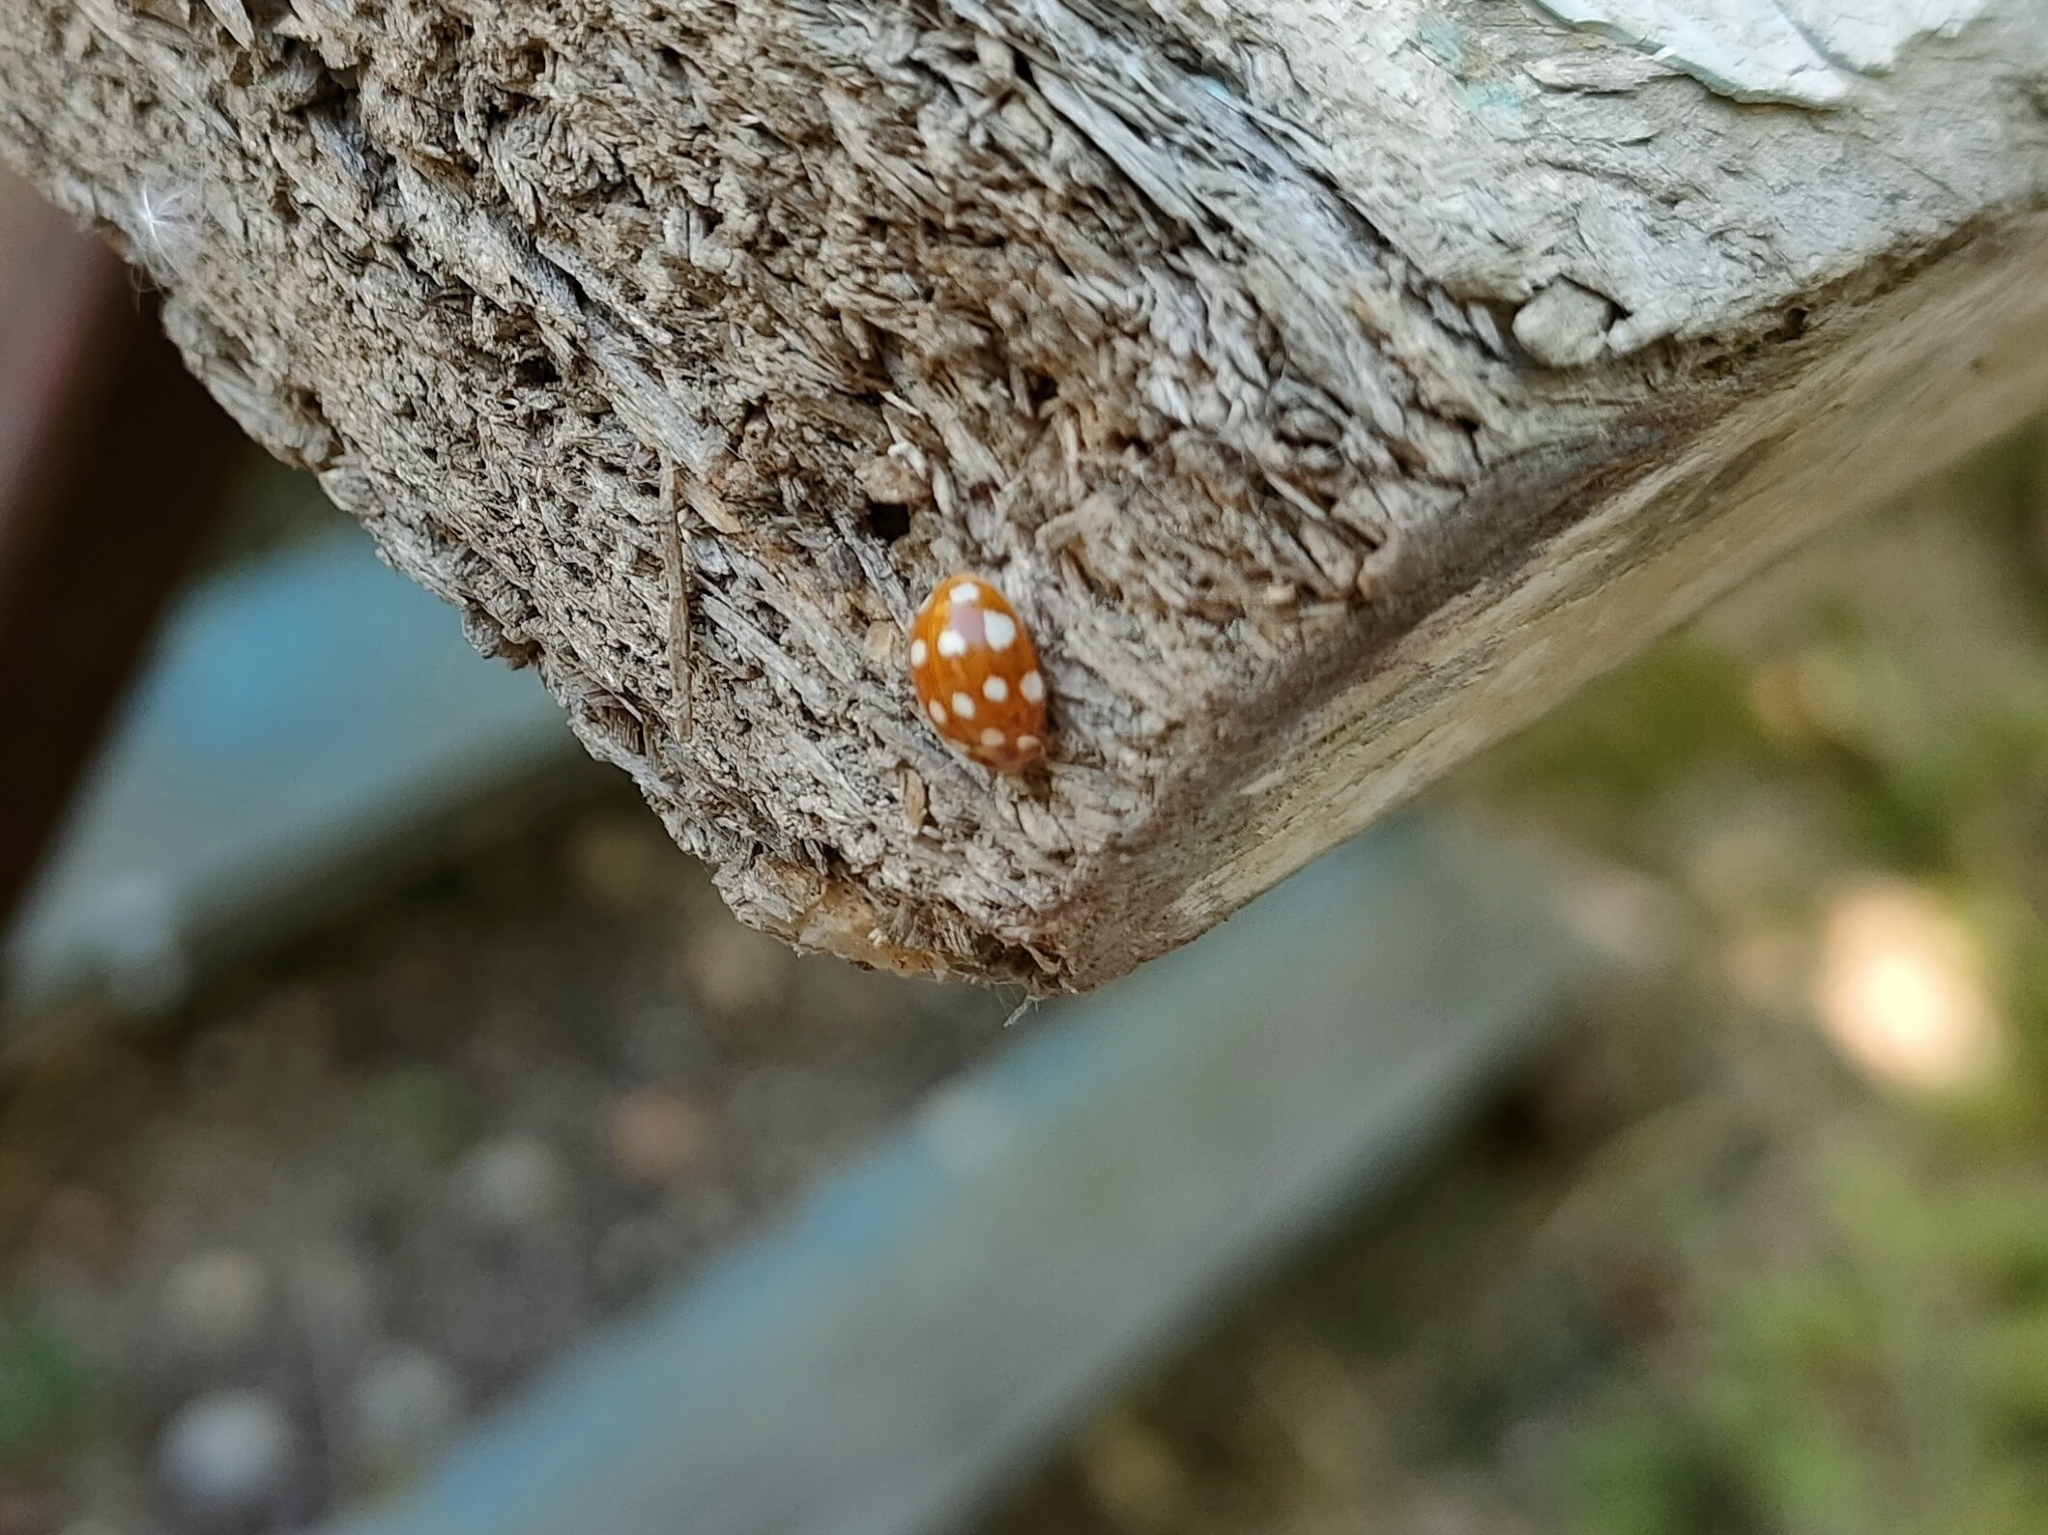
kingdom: Animalia
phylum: Arthropoda
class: Insecta
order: Coleoptera
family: Coccinellidae
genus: Calvia
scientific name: Calvia quatuordecimguttata
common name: Cream-spot ladybird
